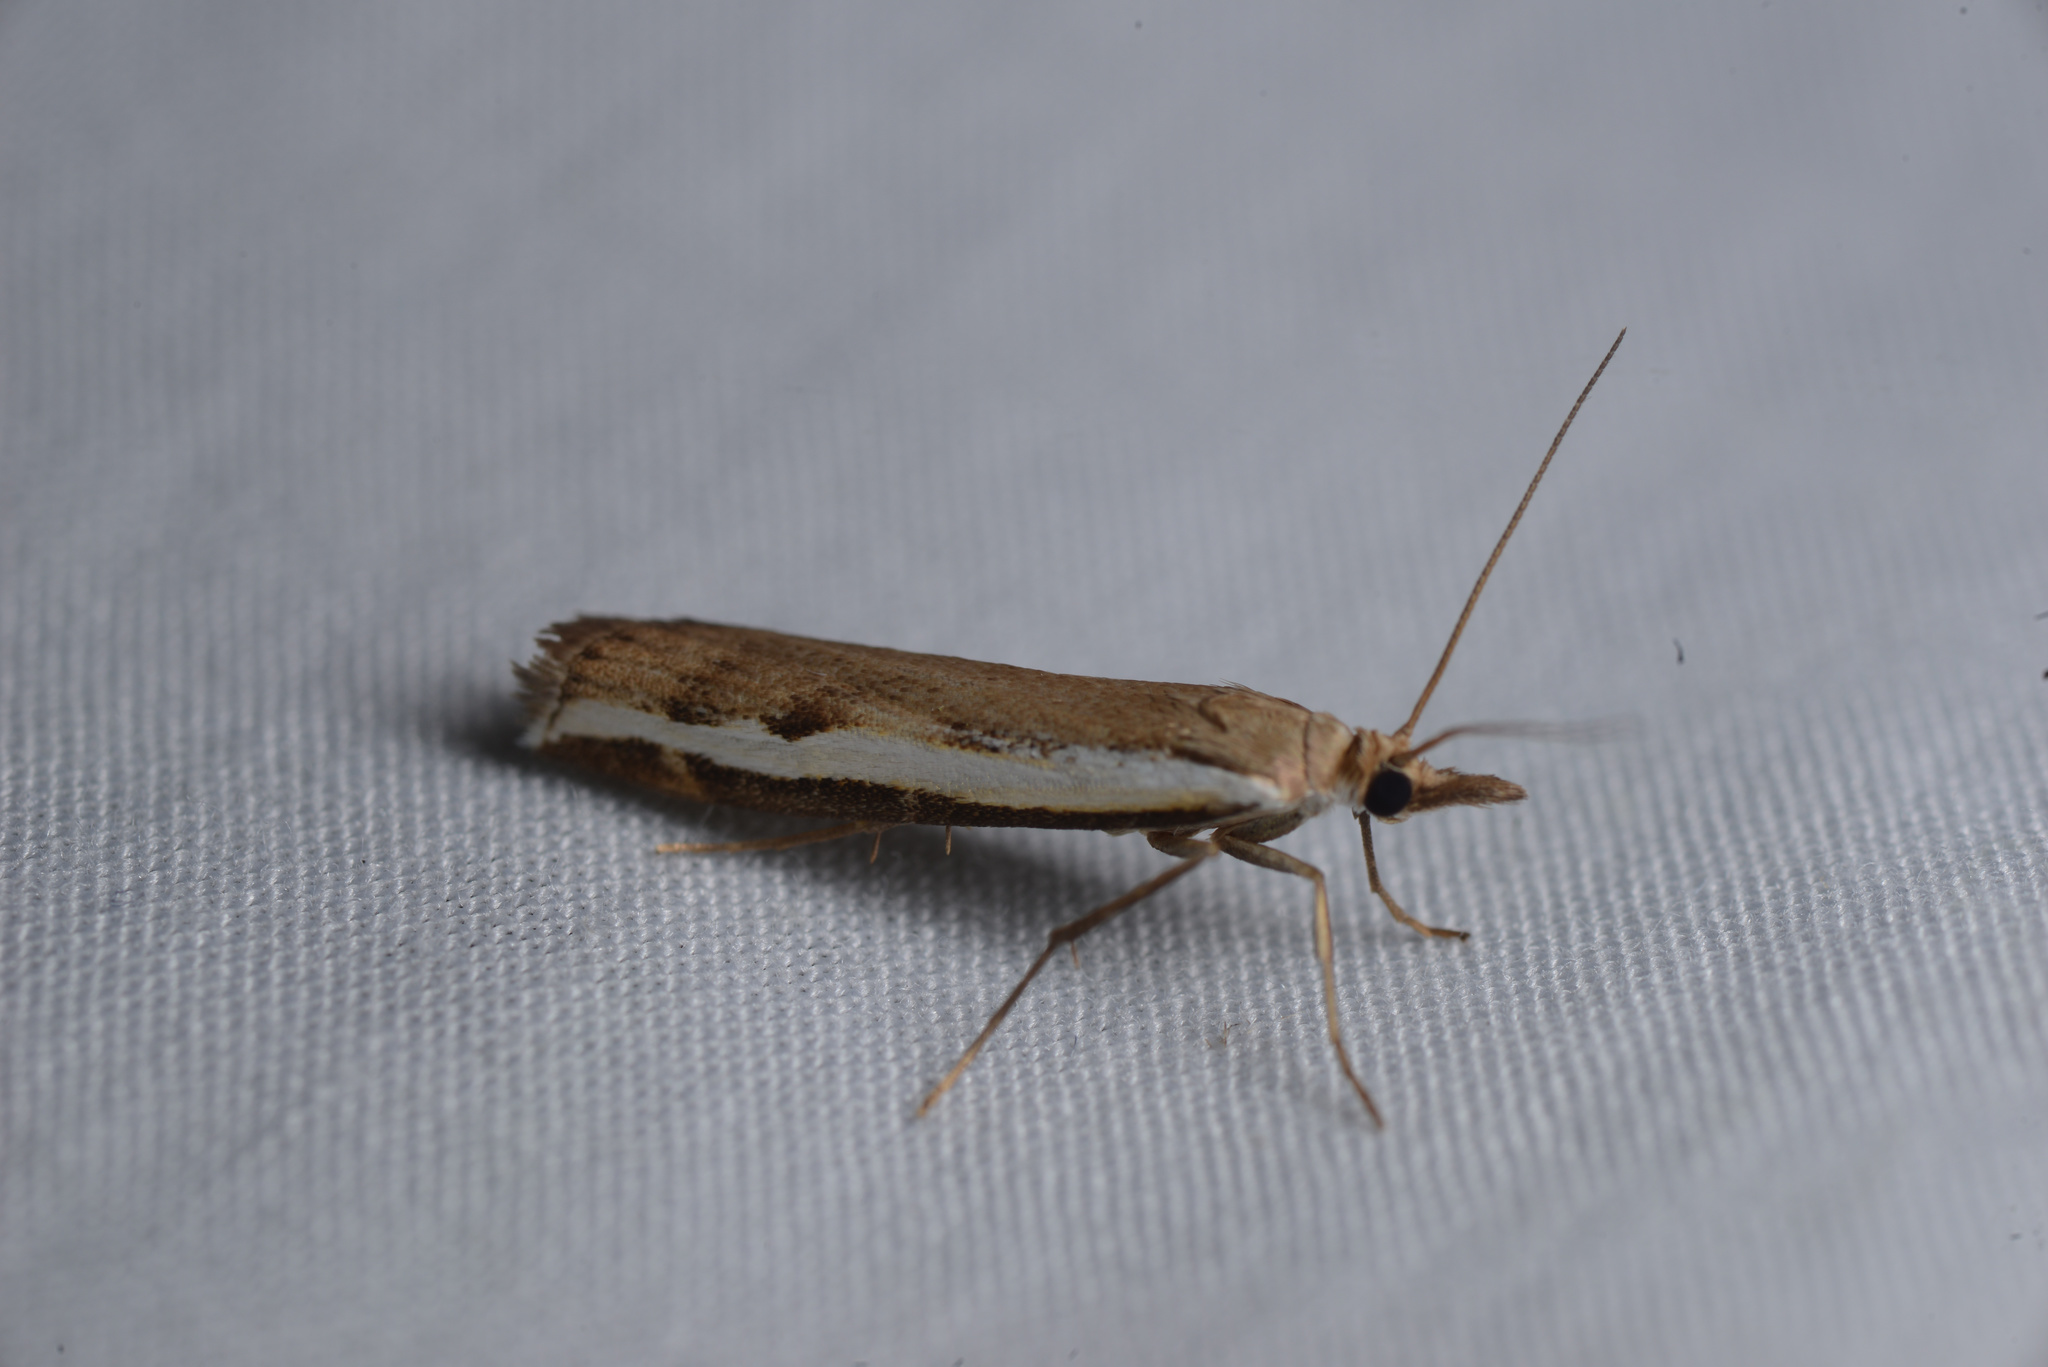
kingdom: Animalia
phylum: Arthropoda
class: Insecta
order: Lepidoptera
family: Crambidae
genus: Orocrambus
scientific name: Orocrambus flexuosellus
